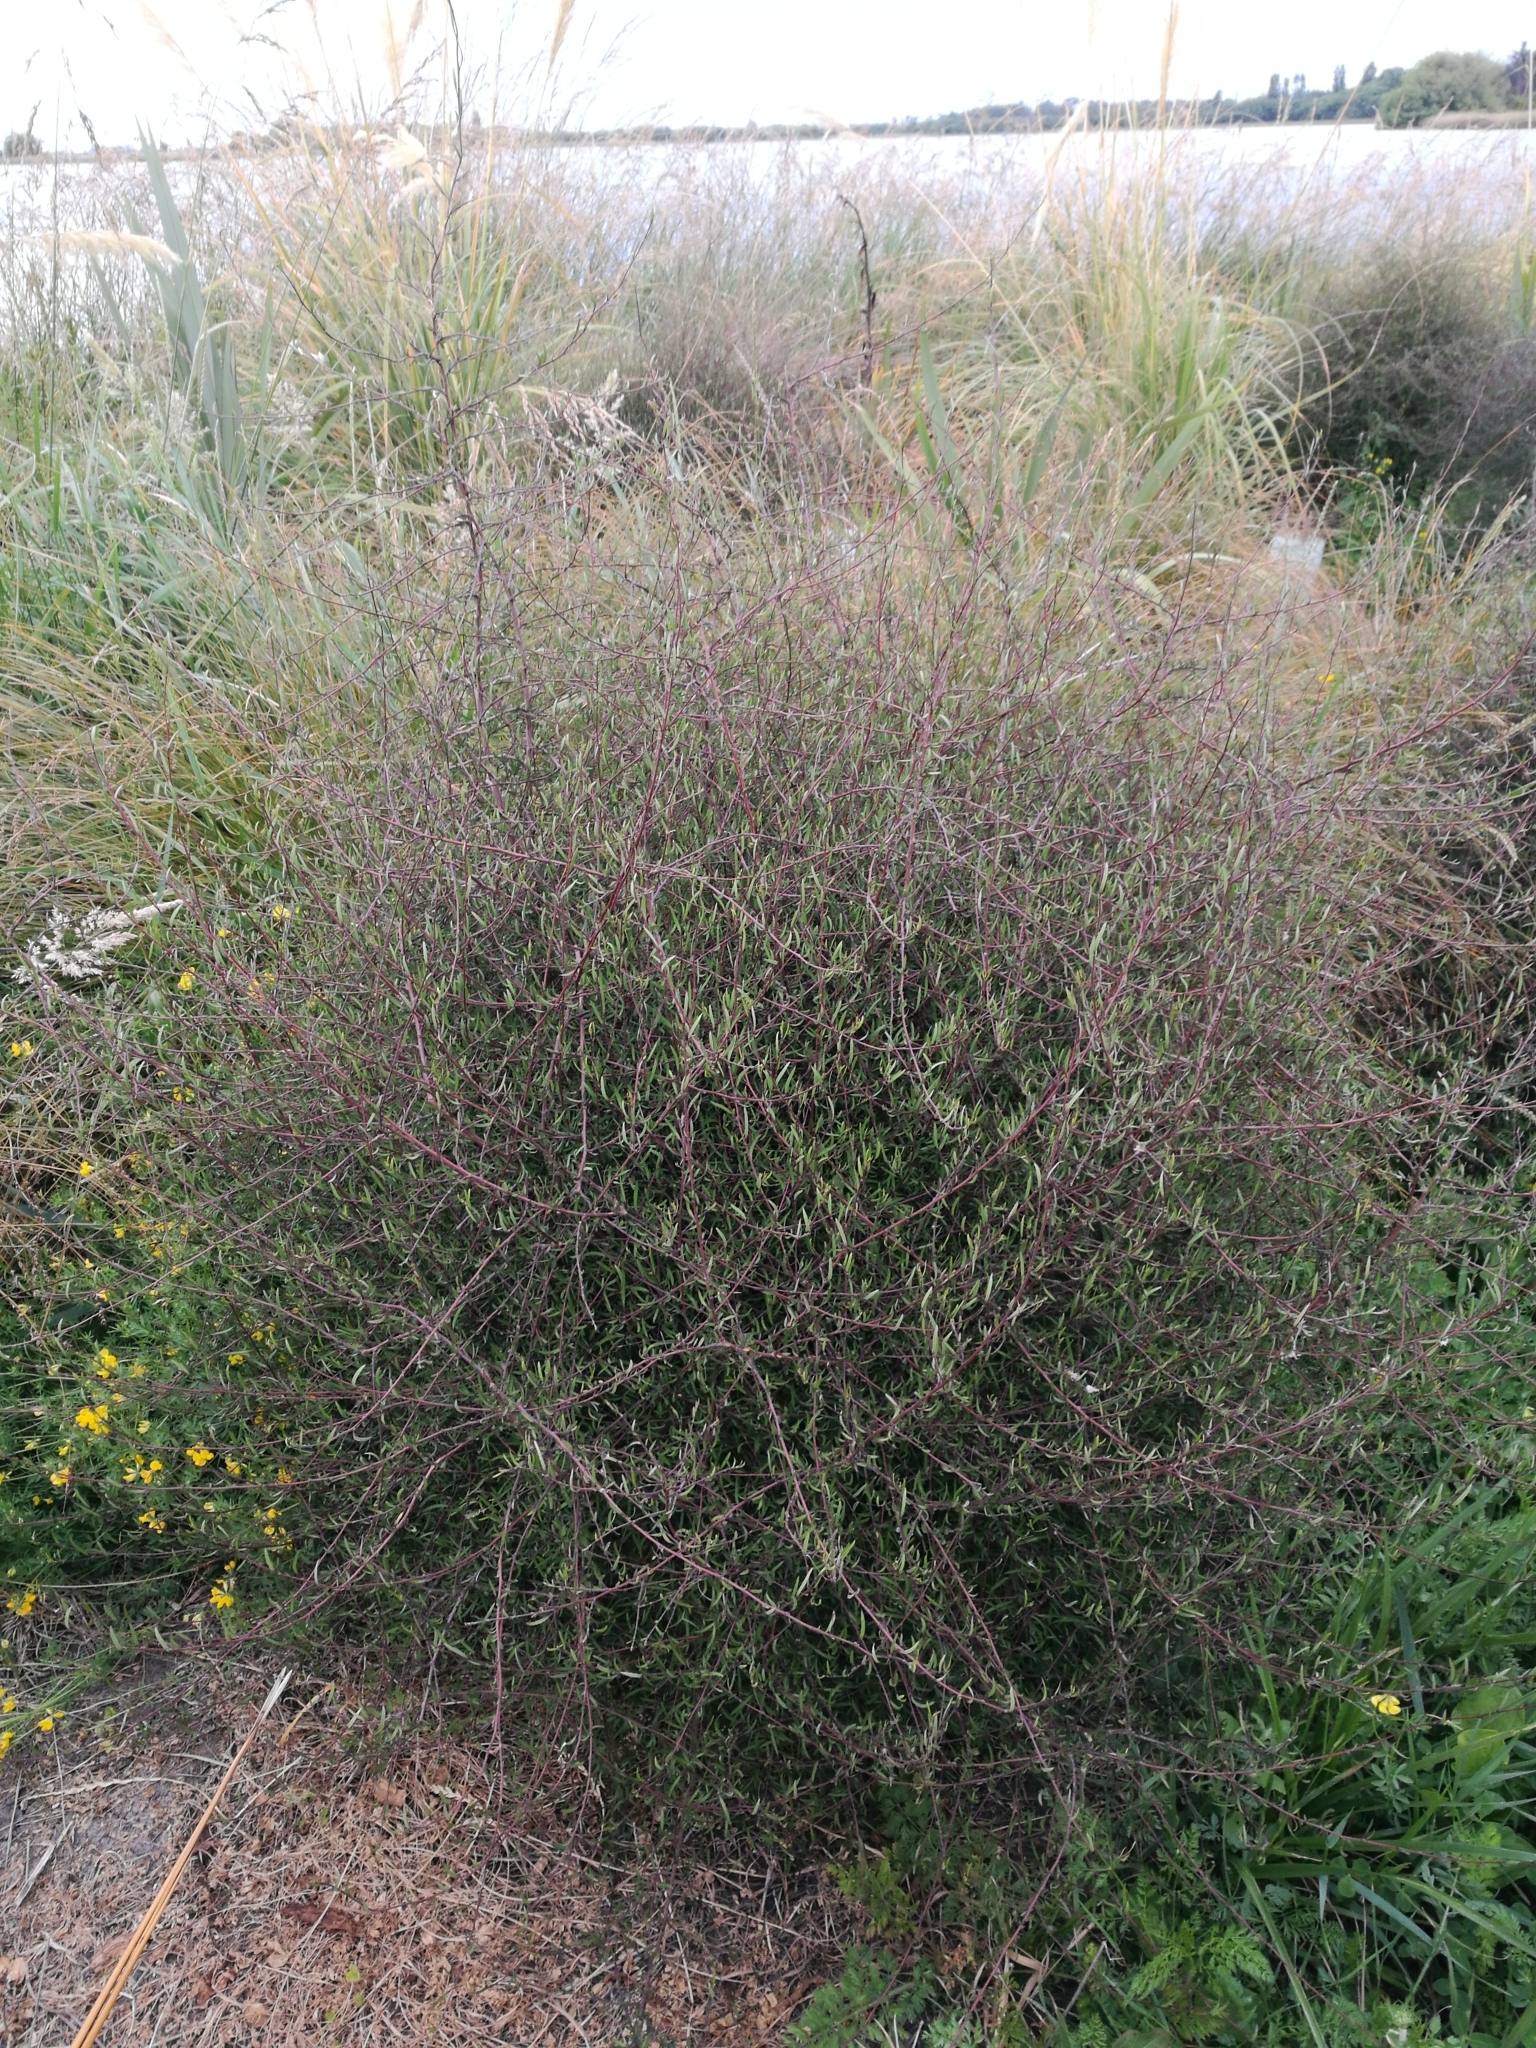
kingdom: Plantae
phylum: Tracheophyta
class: Magnoliopsida
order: Malvales
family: Malvaceae
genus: Plagianthus
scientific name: Plagianthus divaricatus
